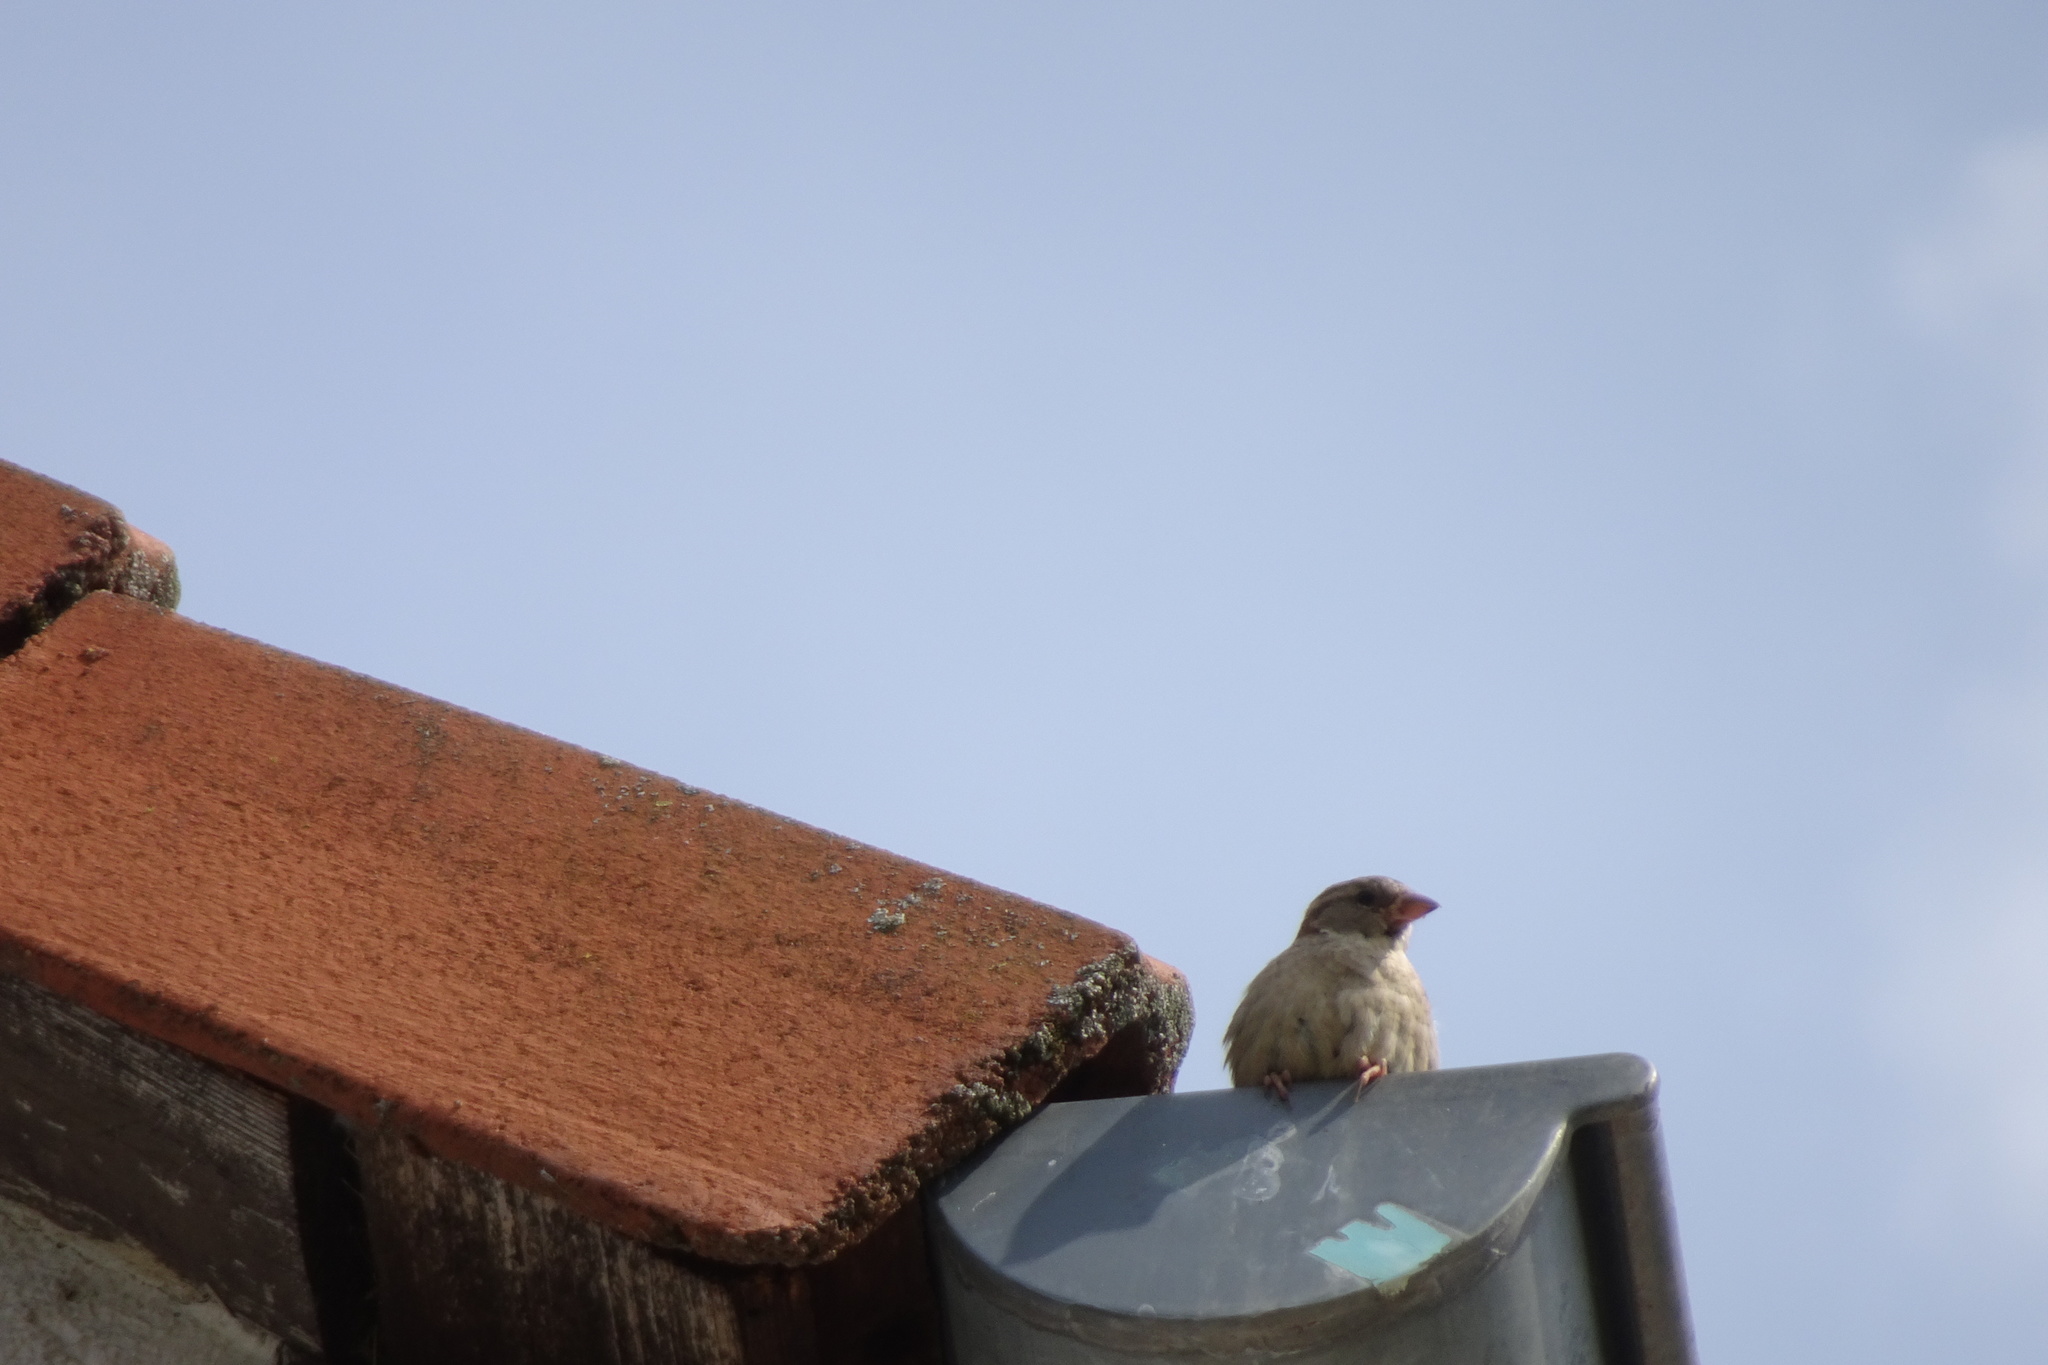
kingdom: Animalia
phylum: Chordata
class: Aves
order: Passeriformes
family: Passeridae
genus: Passer
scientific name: Passer domesticus
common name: House sparrow
